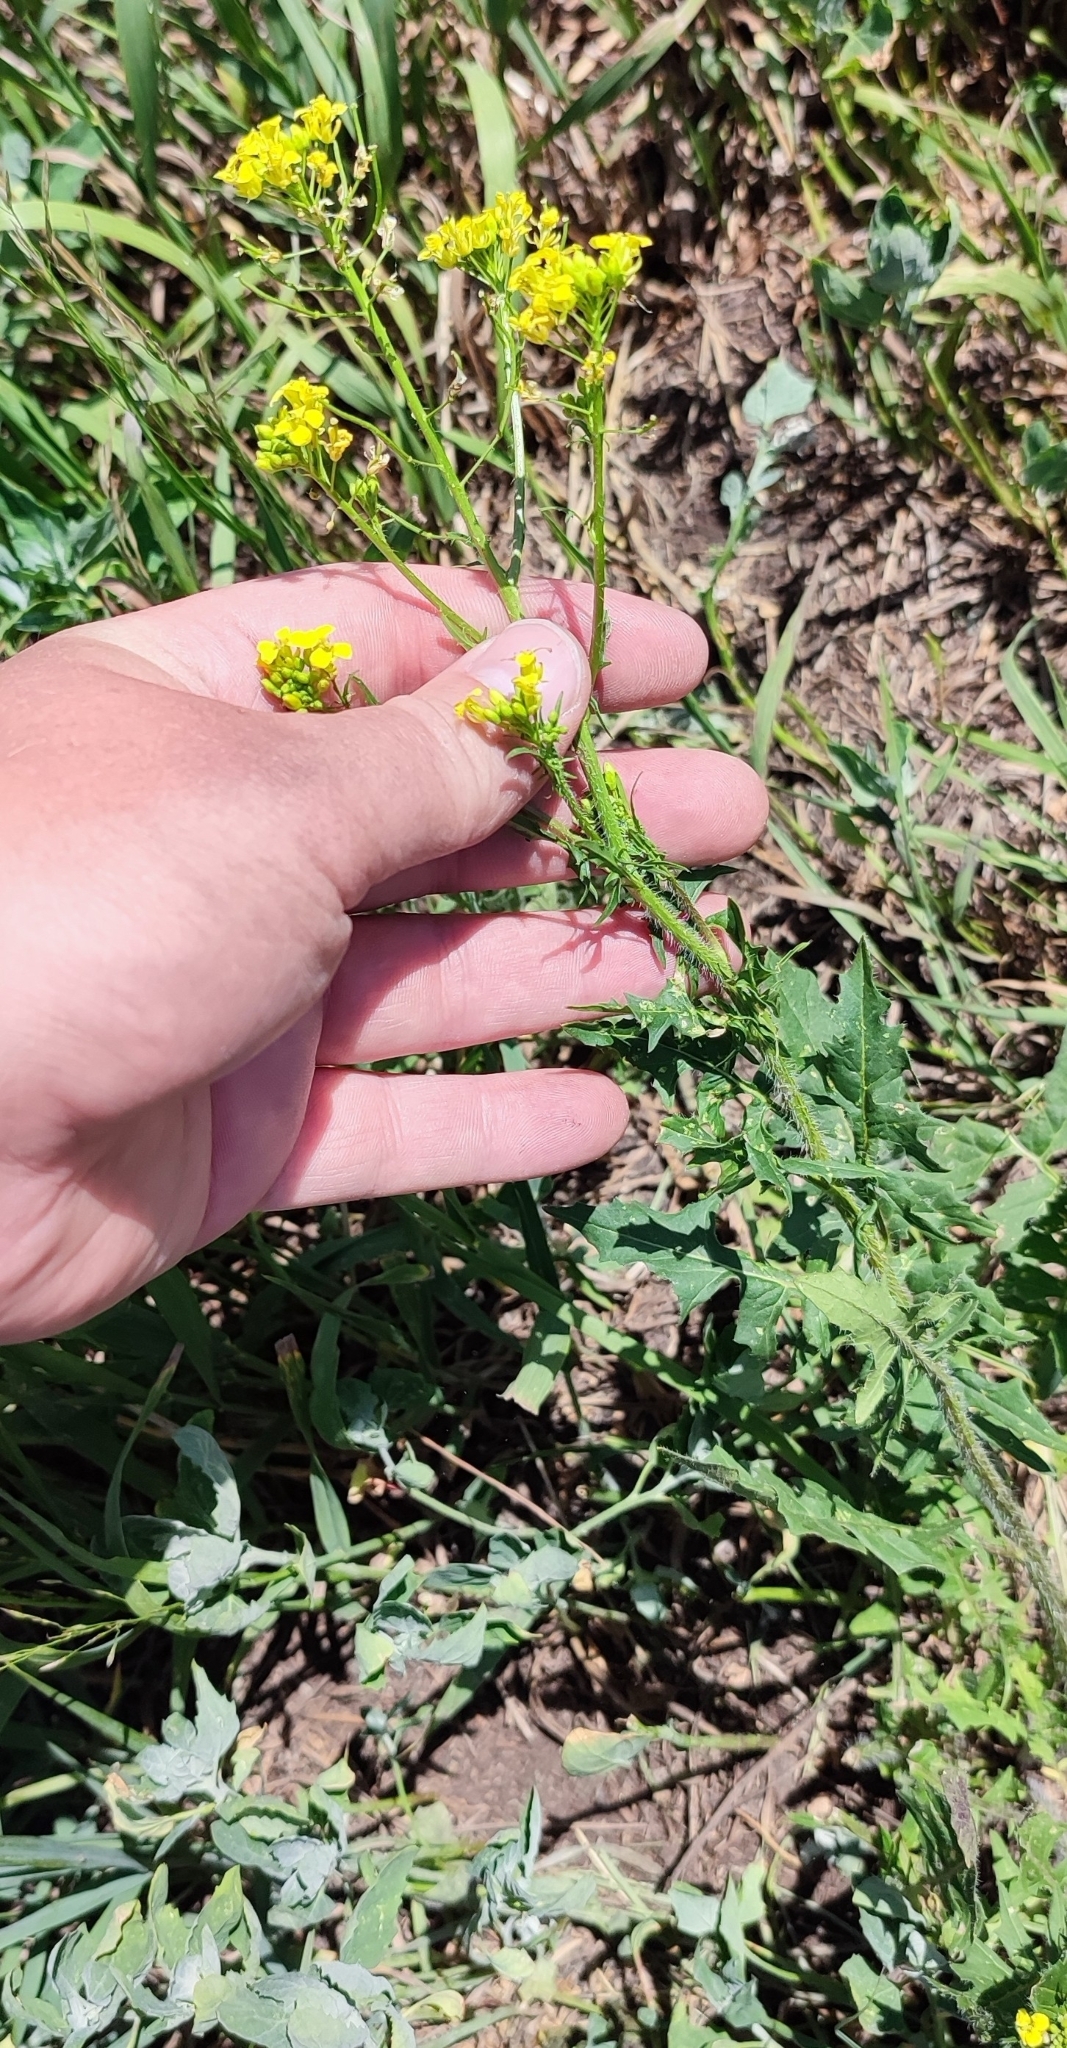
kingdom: Plantae
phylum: Tracheophyta
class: Magnoliopsida
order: Brassicales
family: Brassicaceae
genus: Sisymbrium
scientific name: Sisymbrium loeselii
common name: False london-rocket
